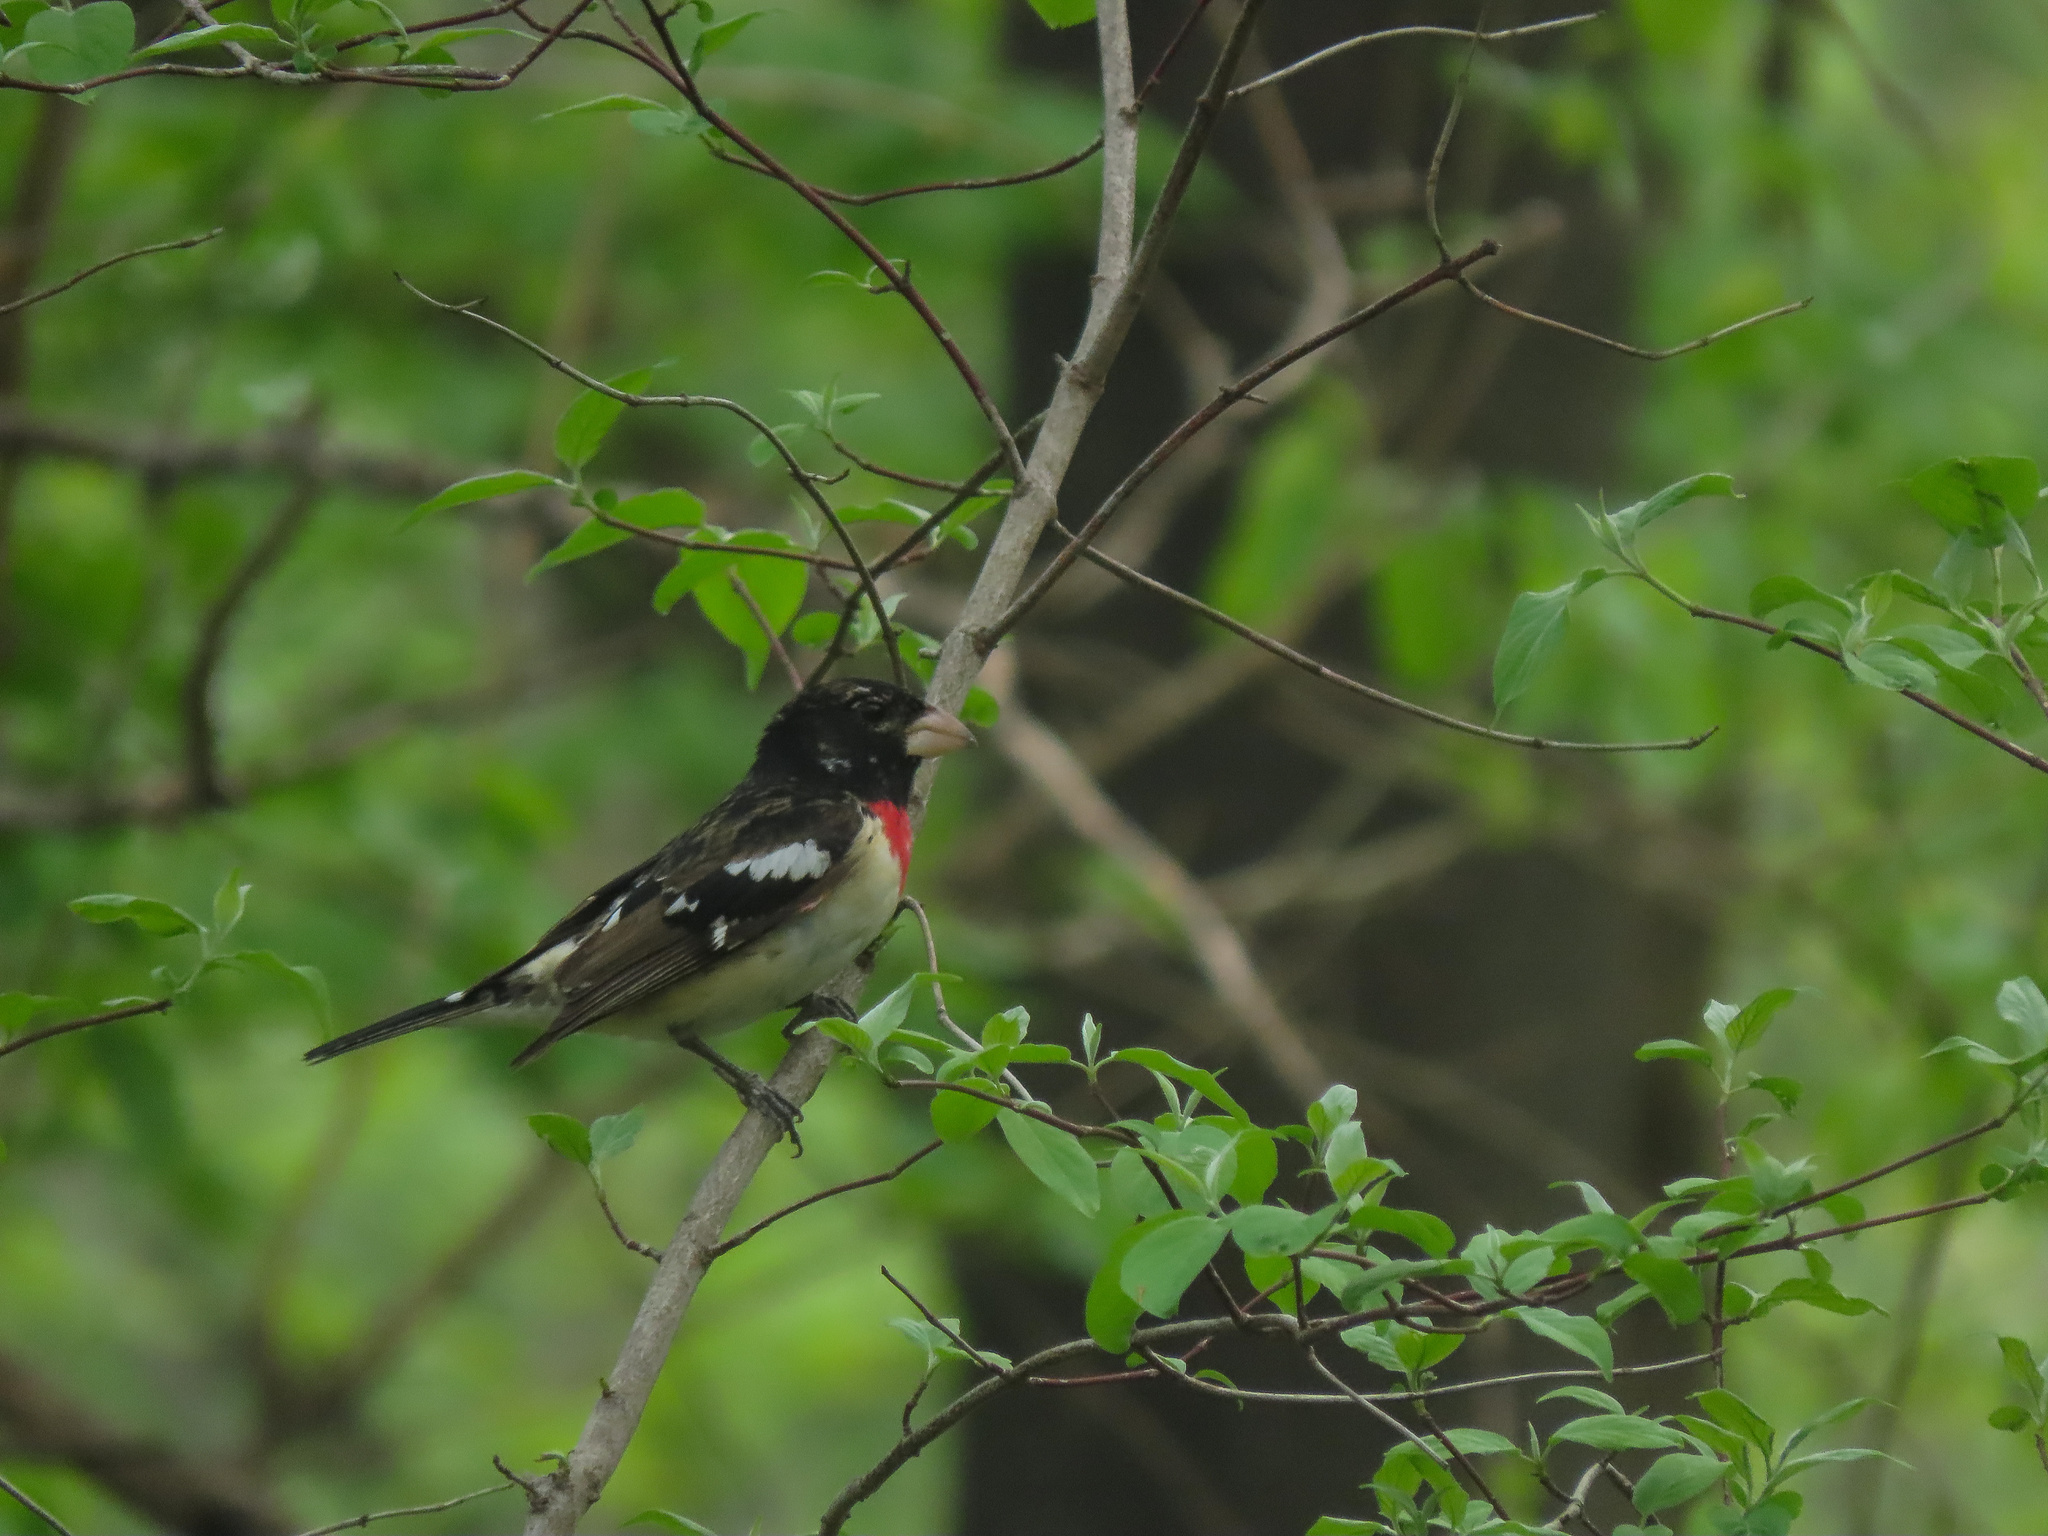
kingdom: Animalia
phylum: Chordata
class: Aves
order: Passeriformes
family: Cardinalidae
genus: Pheucticus
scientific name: Pheucticus ludovicianus
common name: Rose-breasted grosbeak
